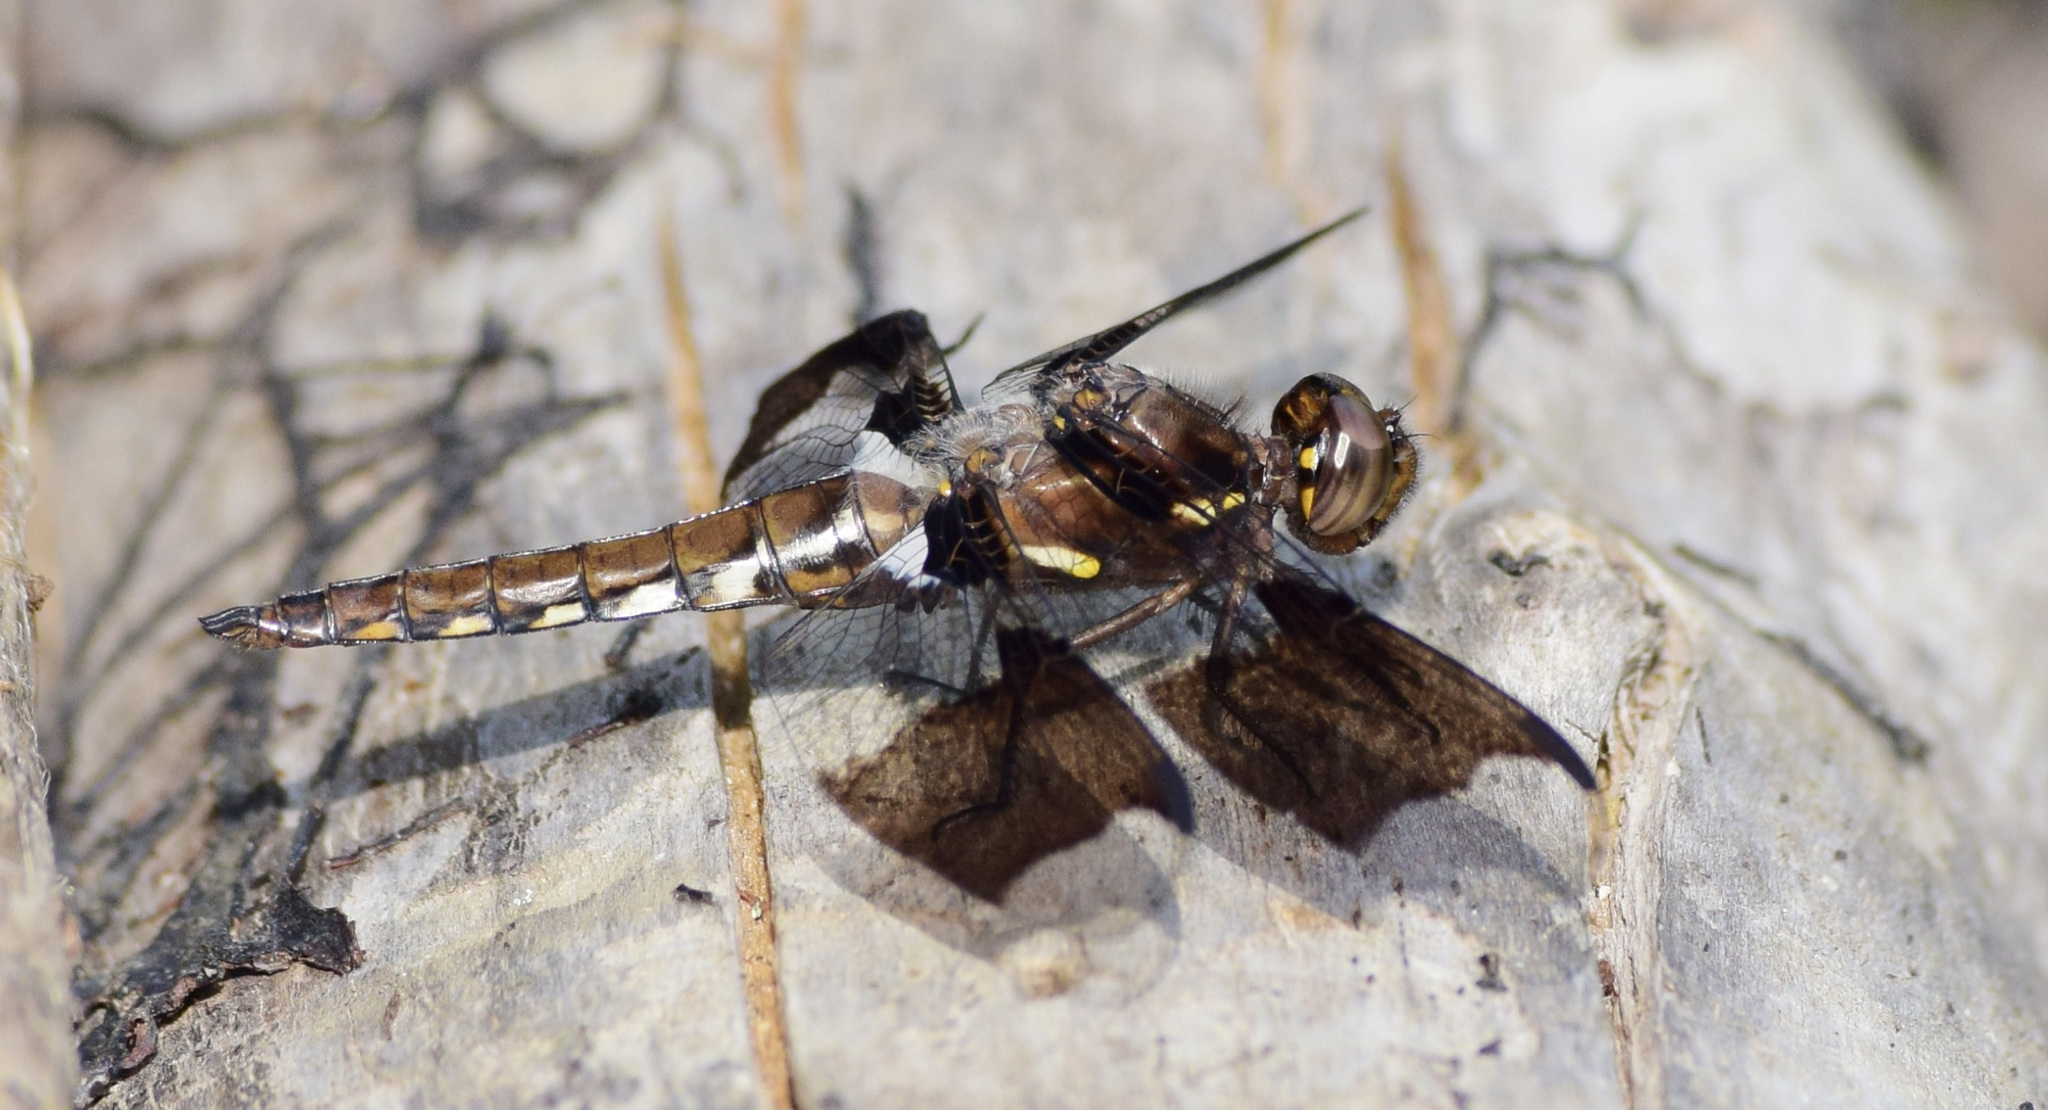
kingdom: Animalia
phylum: Arthropoda
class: Insecta
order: Odonata
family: Libellulidae
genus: Plathemis
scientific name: Plathemis lydia
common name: Common whitetail
